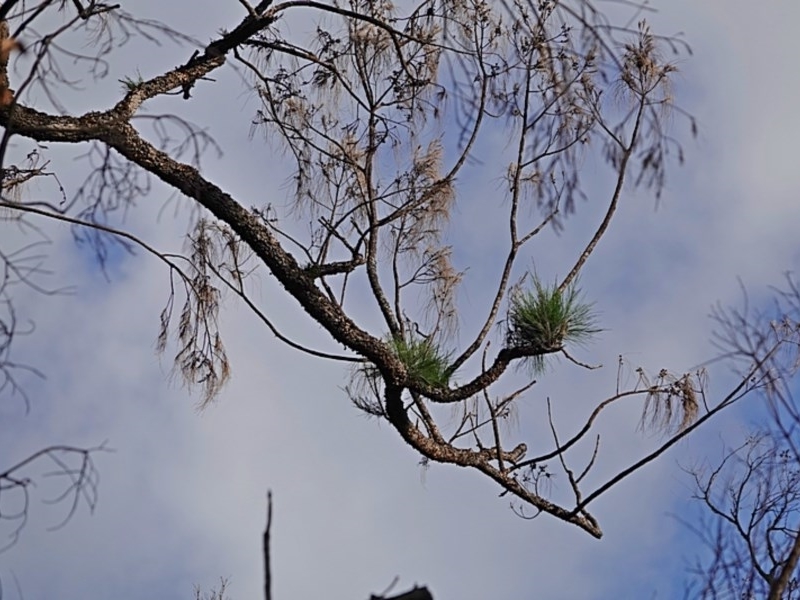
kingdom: Plantae
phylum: Tracheophyta
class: Magnoliopsida
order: Fagales
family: Casuarinaceae
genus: Casuarina
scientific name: Casuarina cunninghamiana
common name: River sheoak
